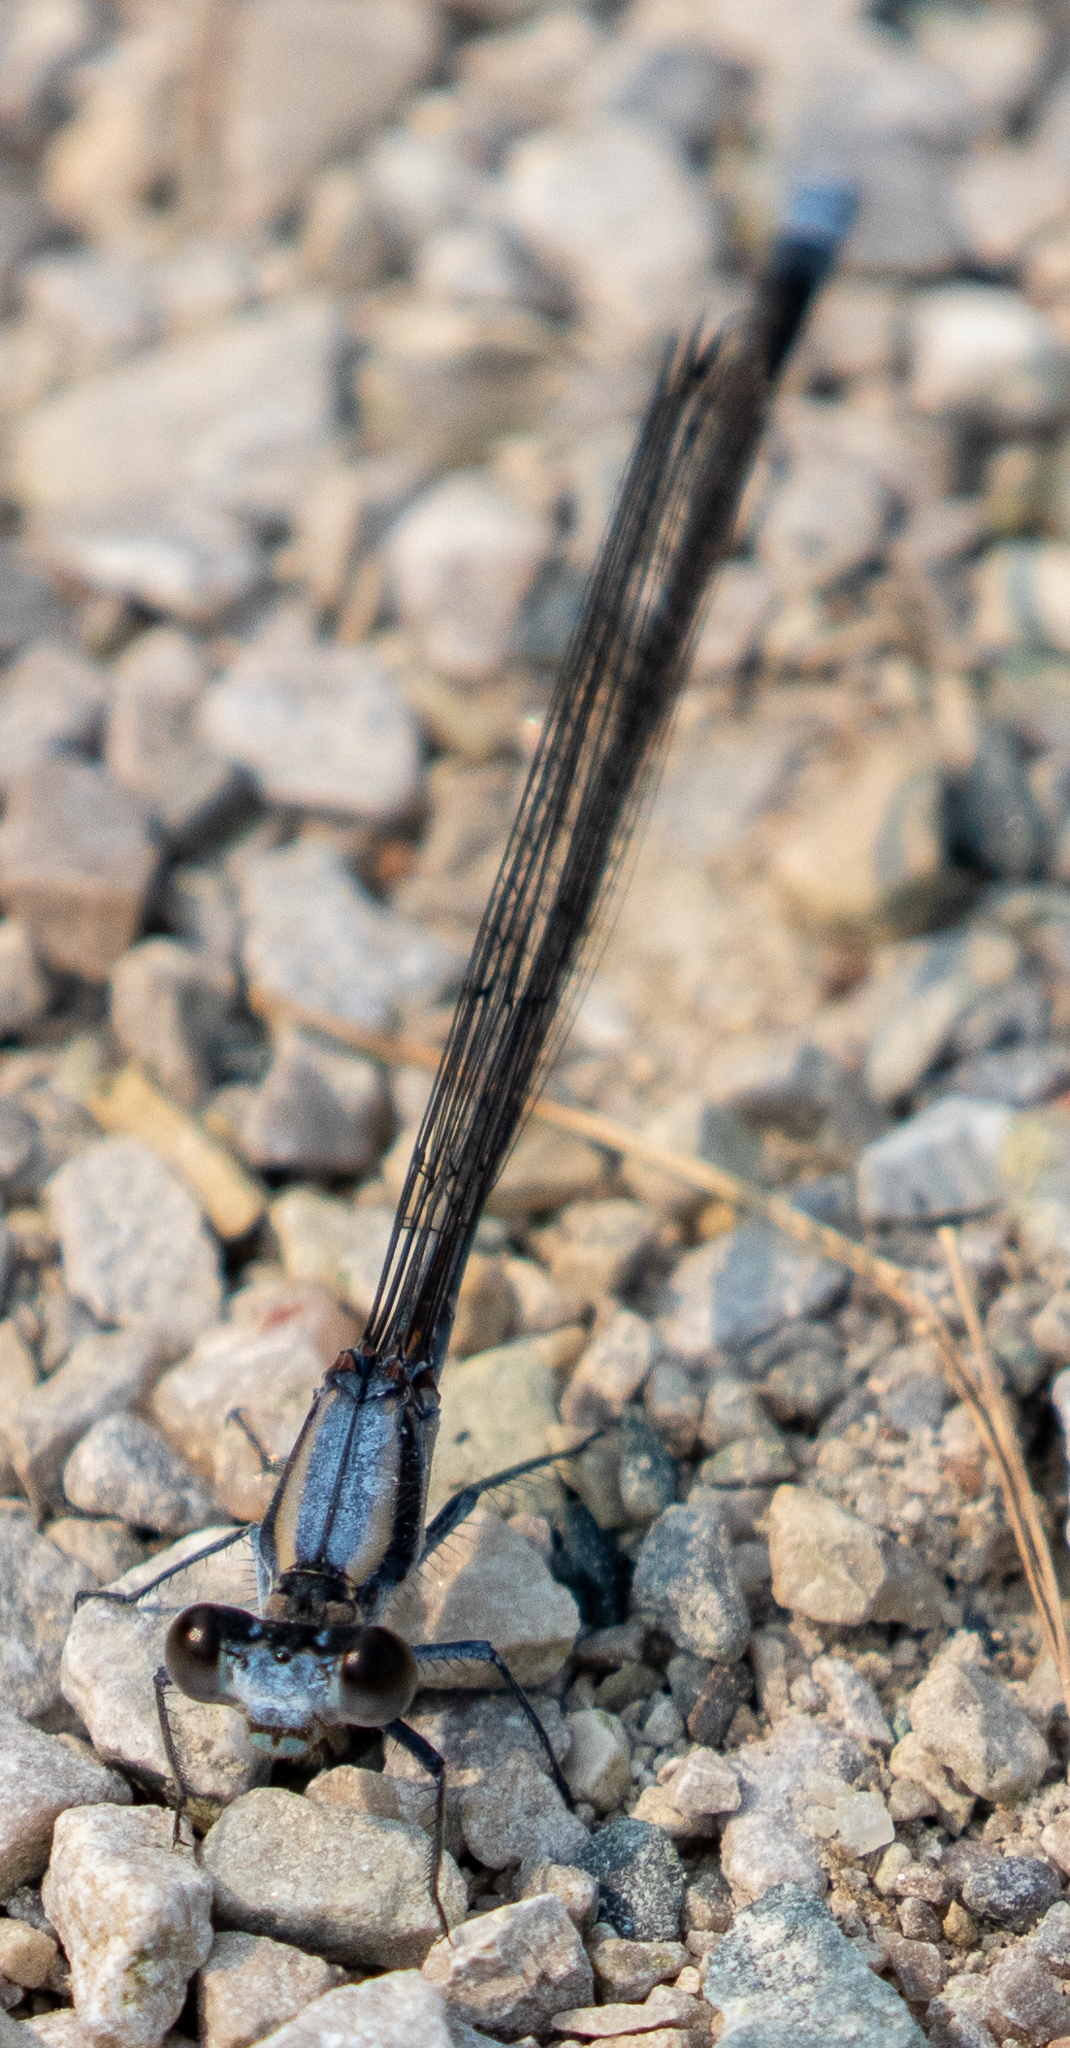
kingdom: Animalia
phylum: Arthropoda
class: Insecta
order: Odonata
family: Coenagrionidae
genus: Argia
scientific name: Argia moesta
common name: Powdered dancer
